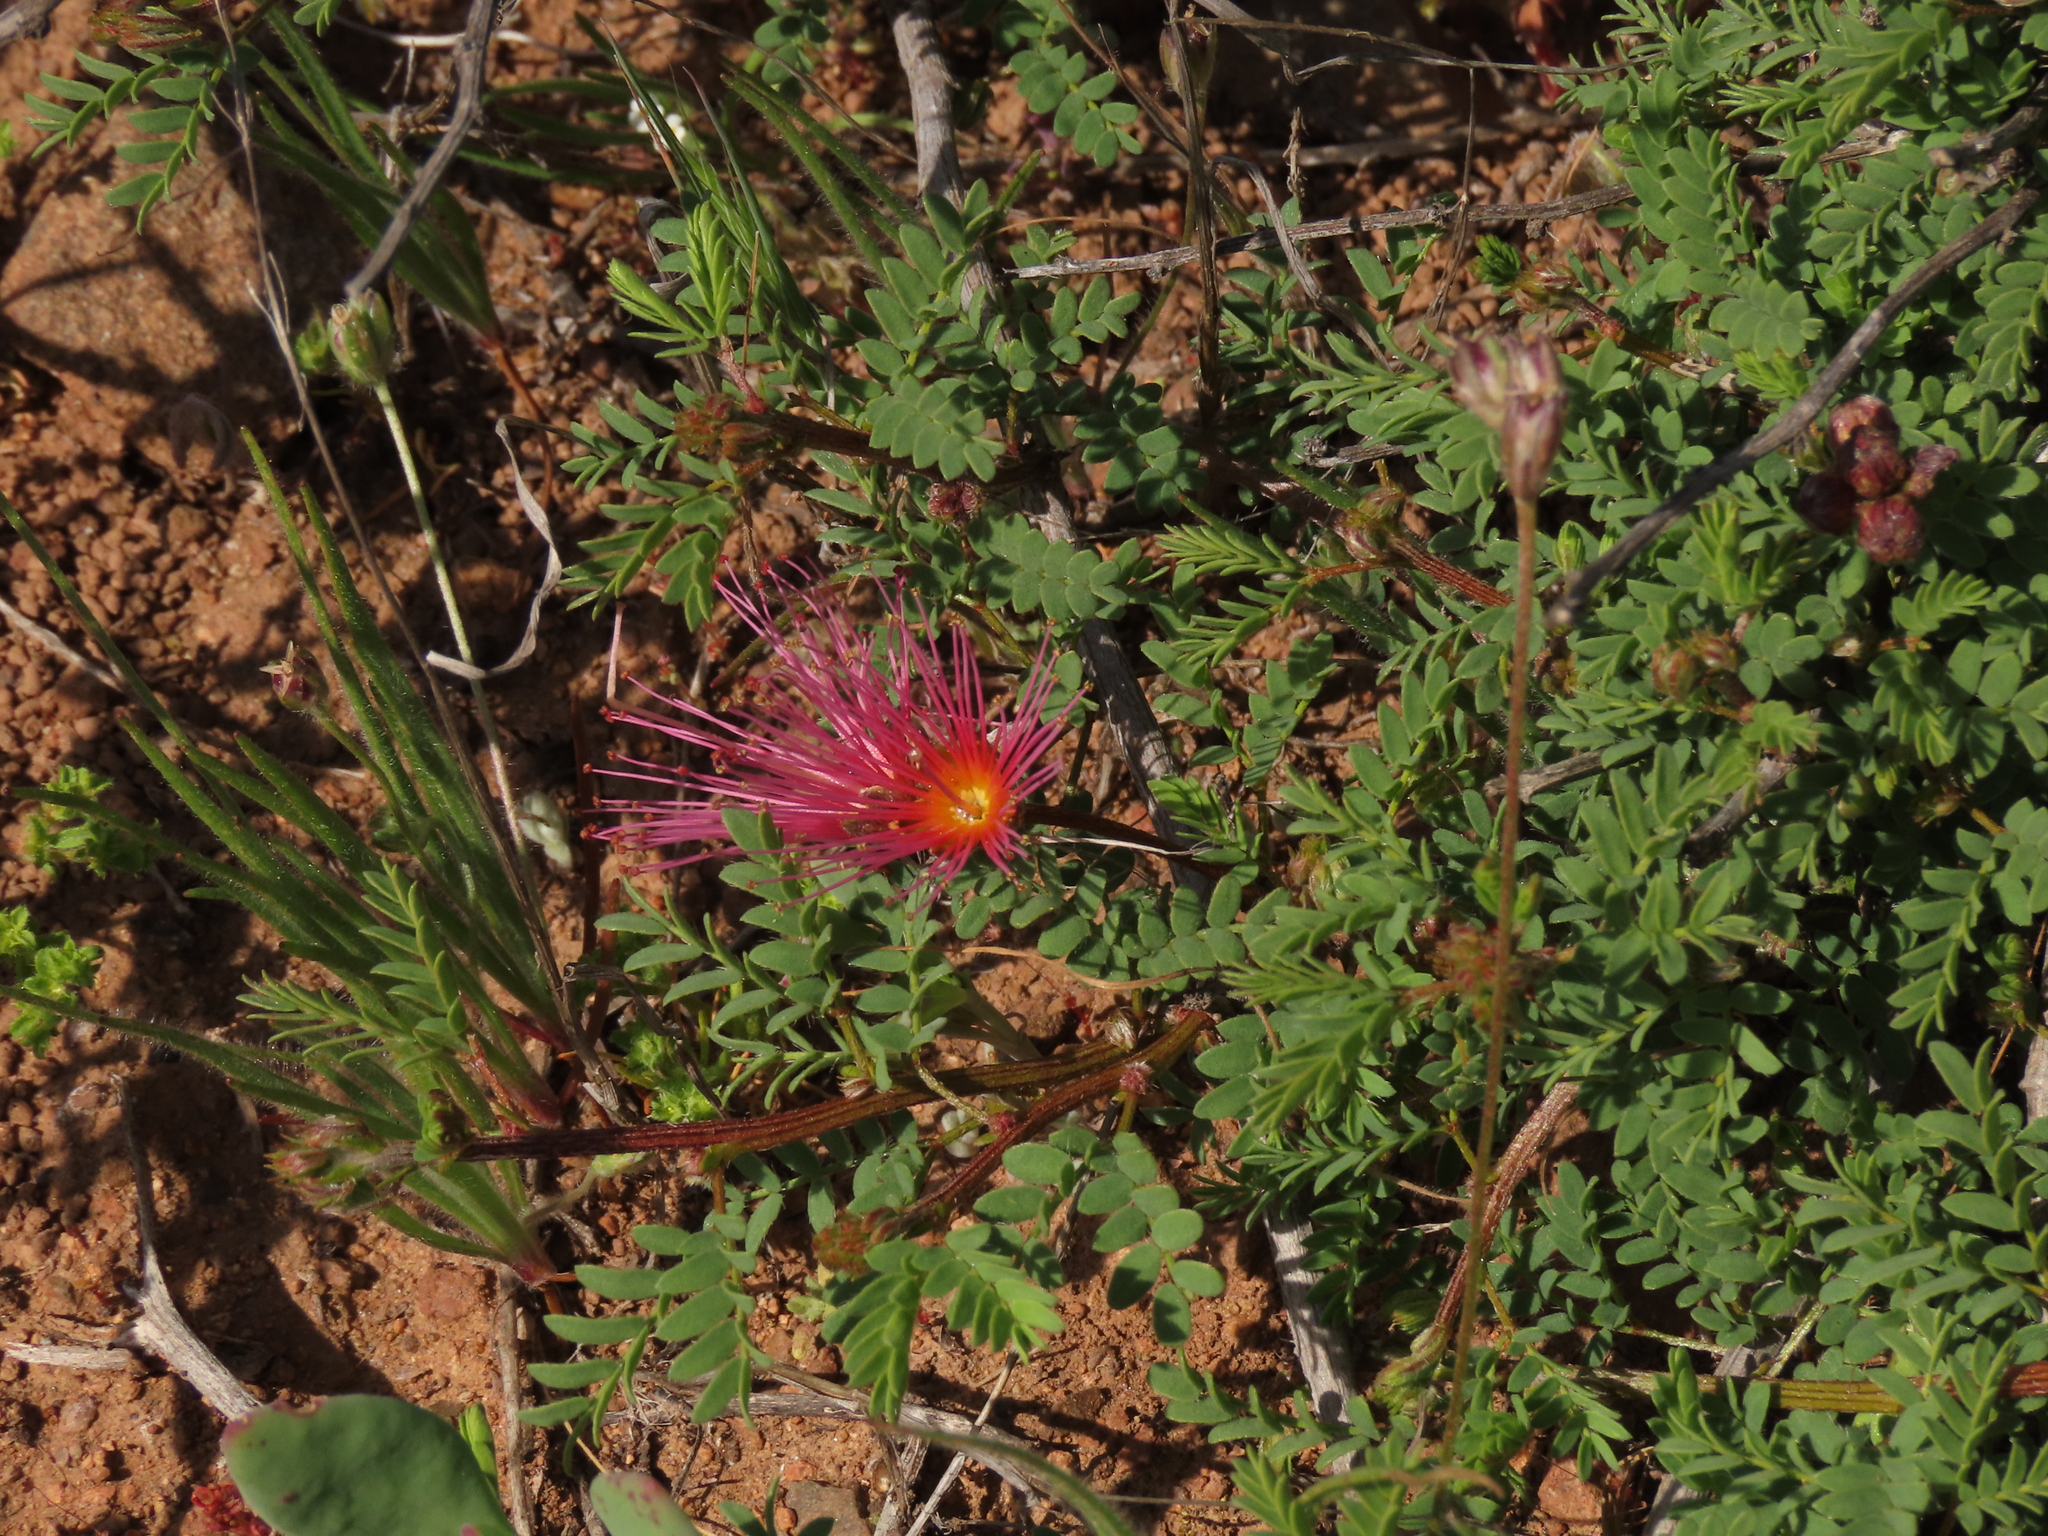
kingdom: Plantae
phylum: Tracheophyta
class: Magnoliopsida
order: Fabales
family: Fabaceae
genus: Calliandra
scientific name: Calliandra chilensis
